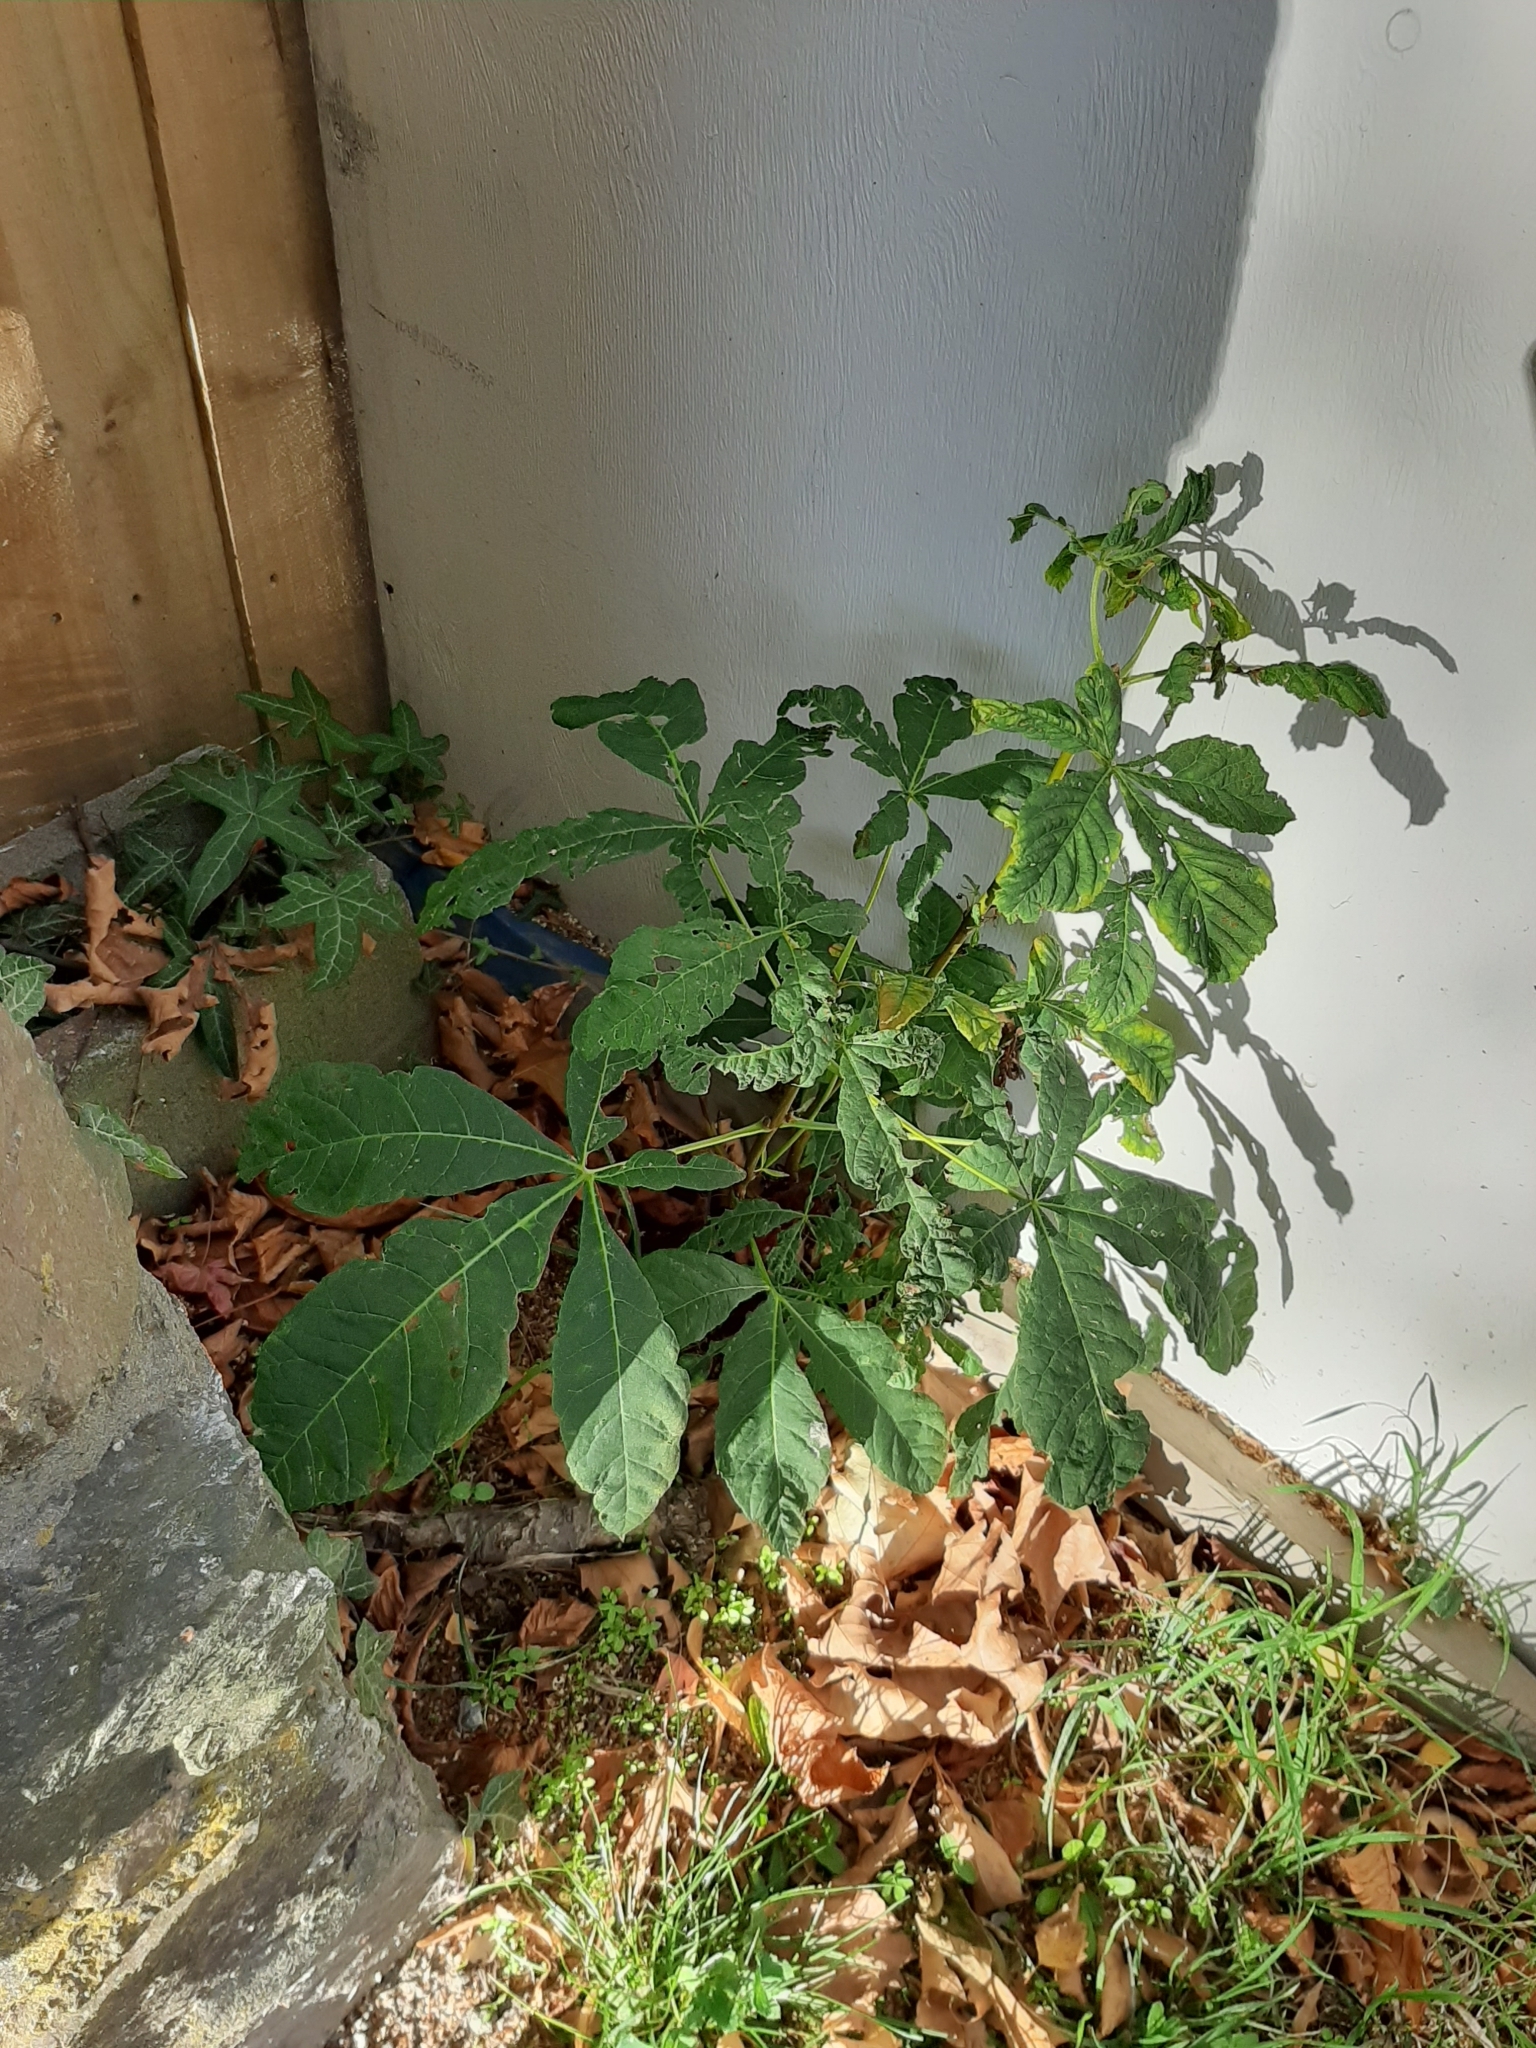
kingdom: Plantae
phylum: Tracheophyta
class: Magnoliopsida
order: Sapindales
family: Sapindaceae
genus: Aesculus
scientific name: Aesculus hippocastanum
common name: Horse-chestnut
